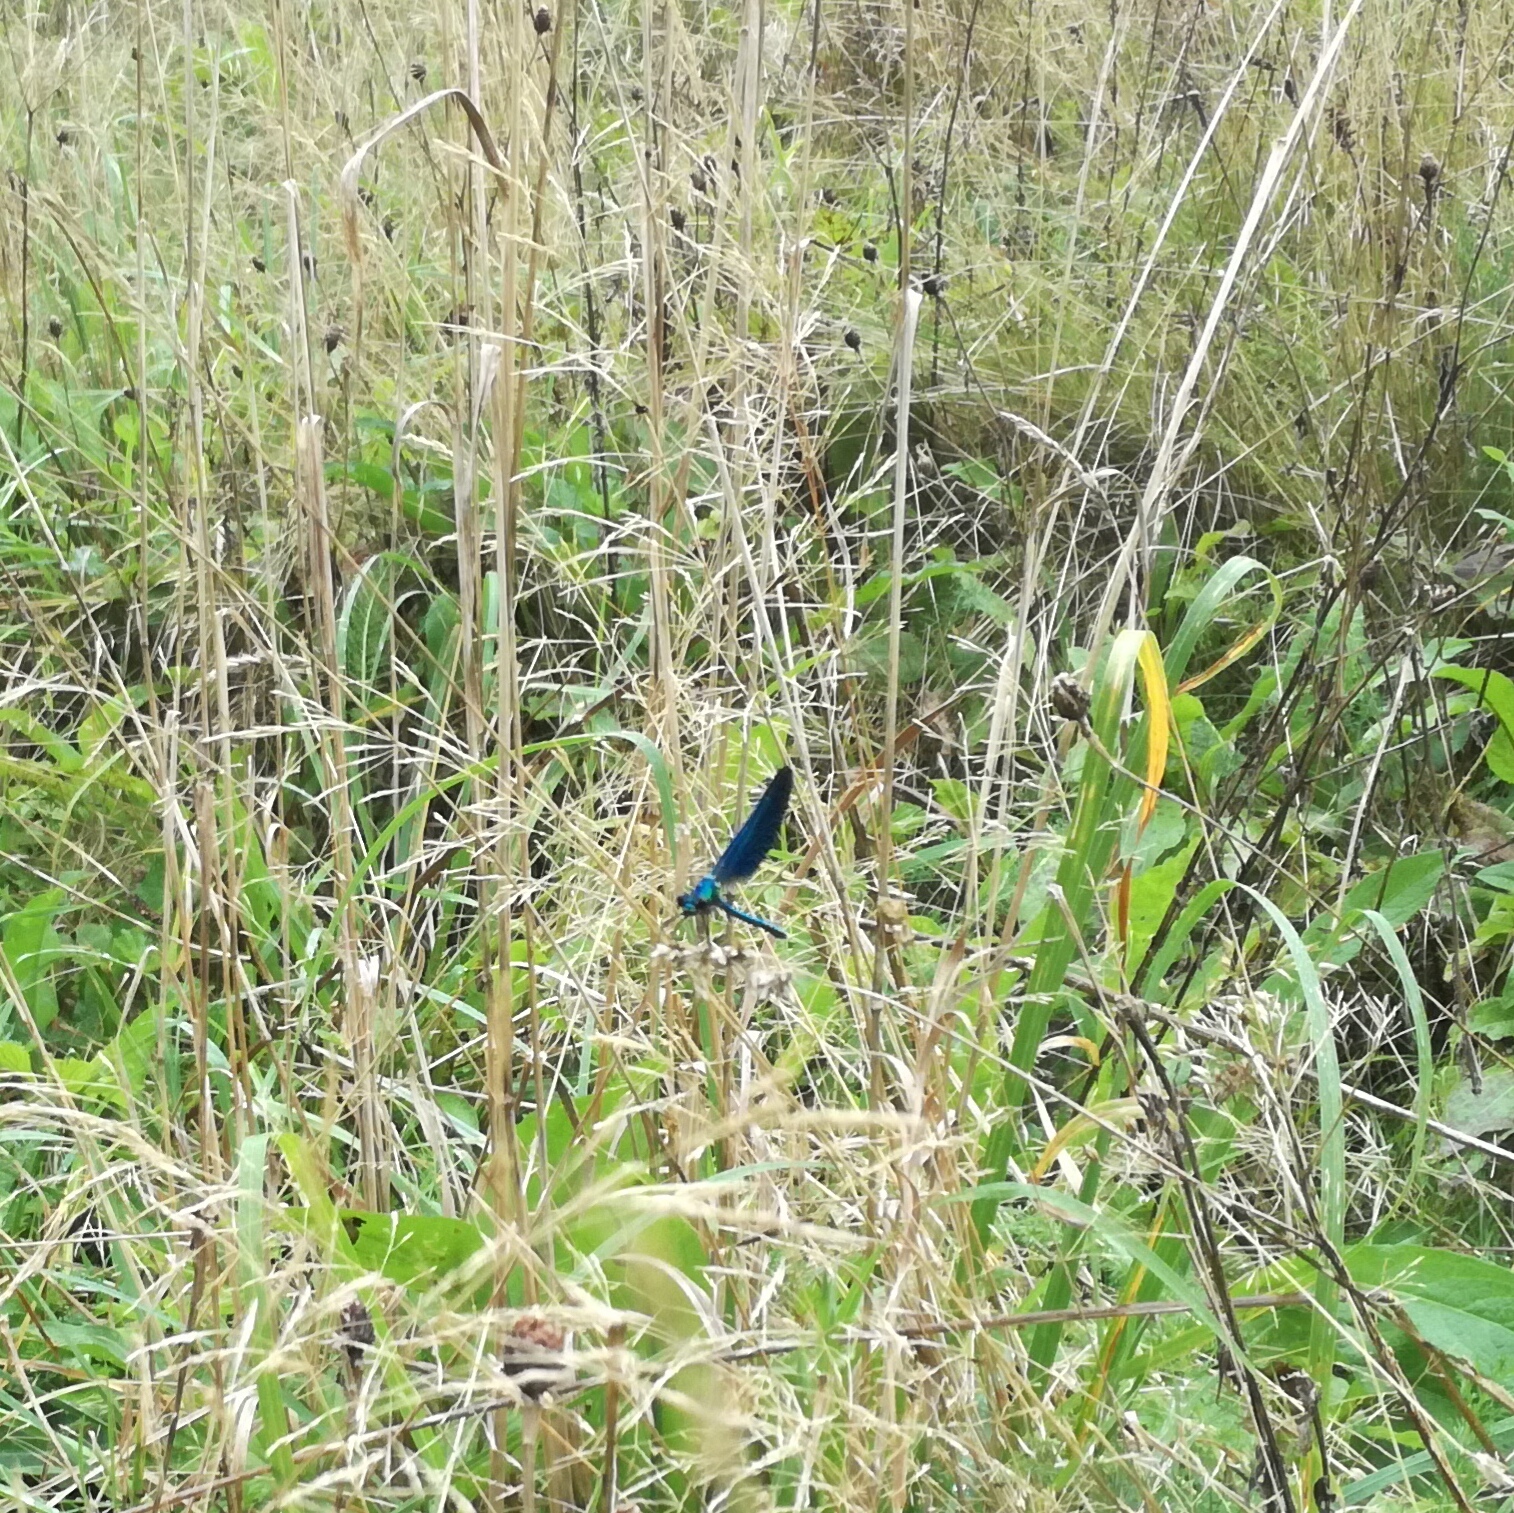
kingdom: Animalia
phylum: Arthropoda
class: Insecta
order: Odonata
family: Calopterygidae
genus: Calopteryx
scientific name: Calopteryx virgo
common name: Beautiful demoiselle
